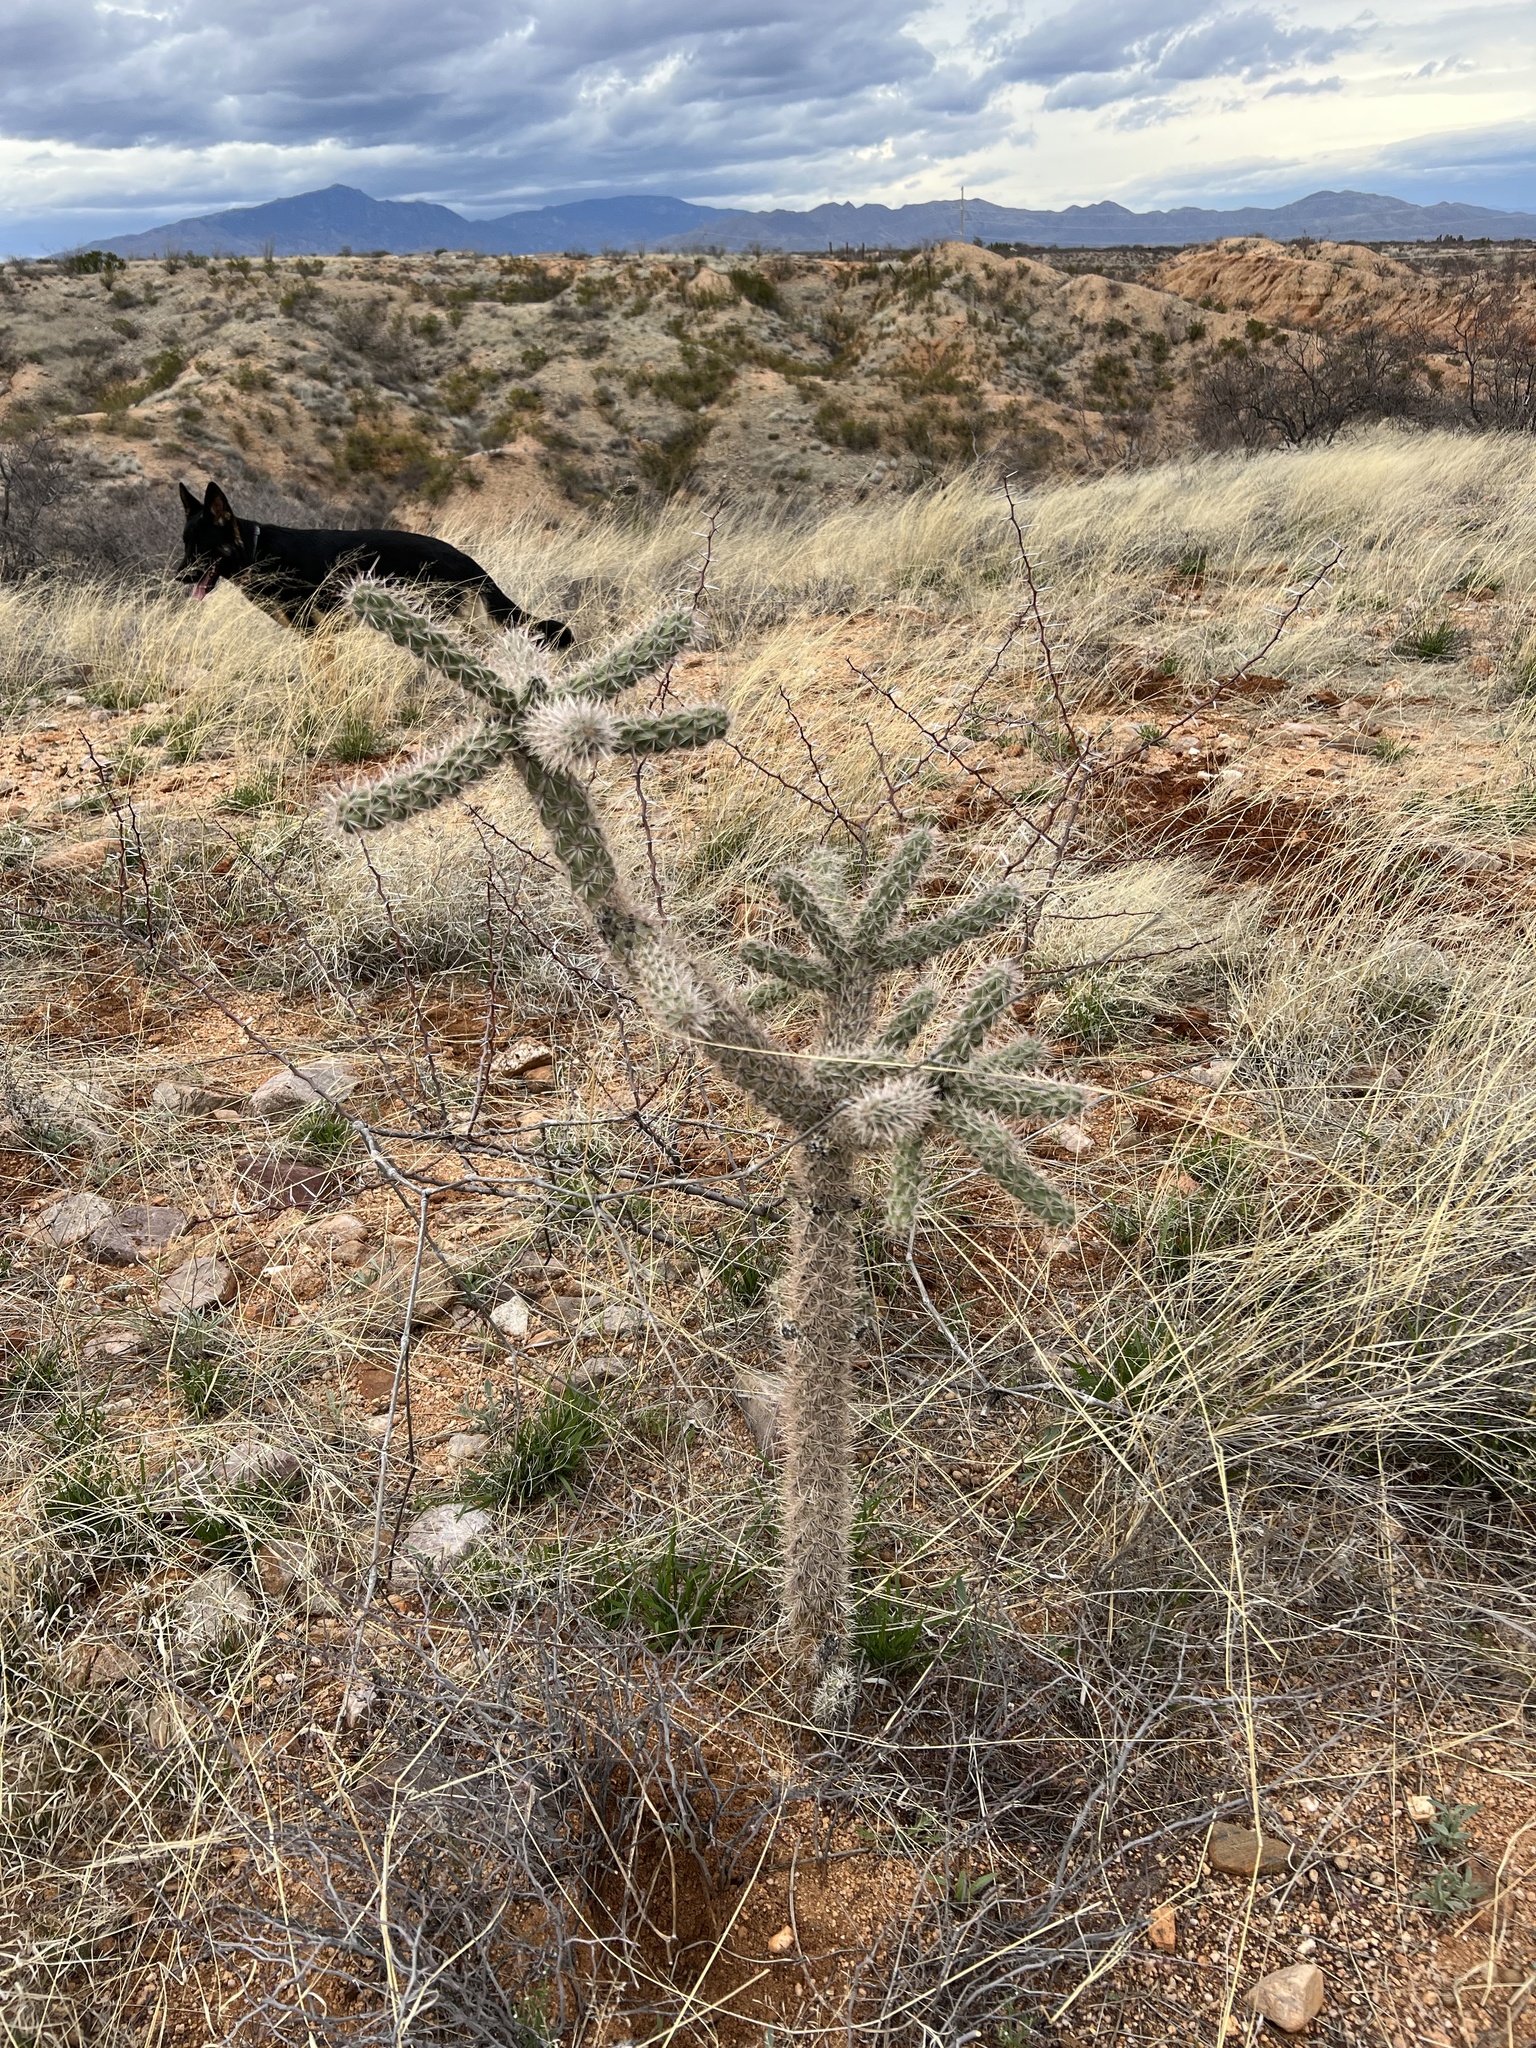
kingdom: Plantae
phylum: Tracheophyta
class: Magnoliopsida
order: Caryophyllales
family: Cactaceae
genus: Cylindropuntia
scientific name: Cylindropuntia imbricata
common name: Candelabrum cactus
